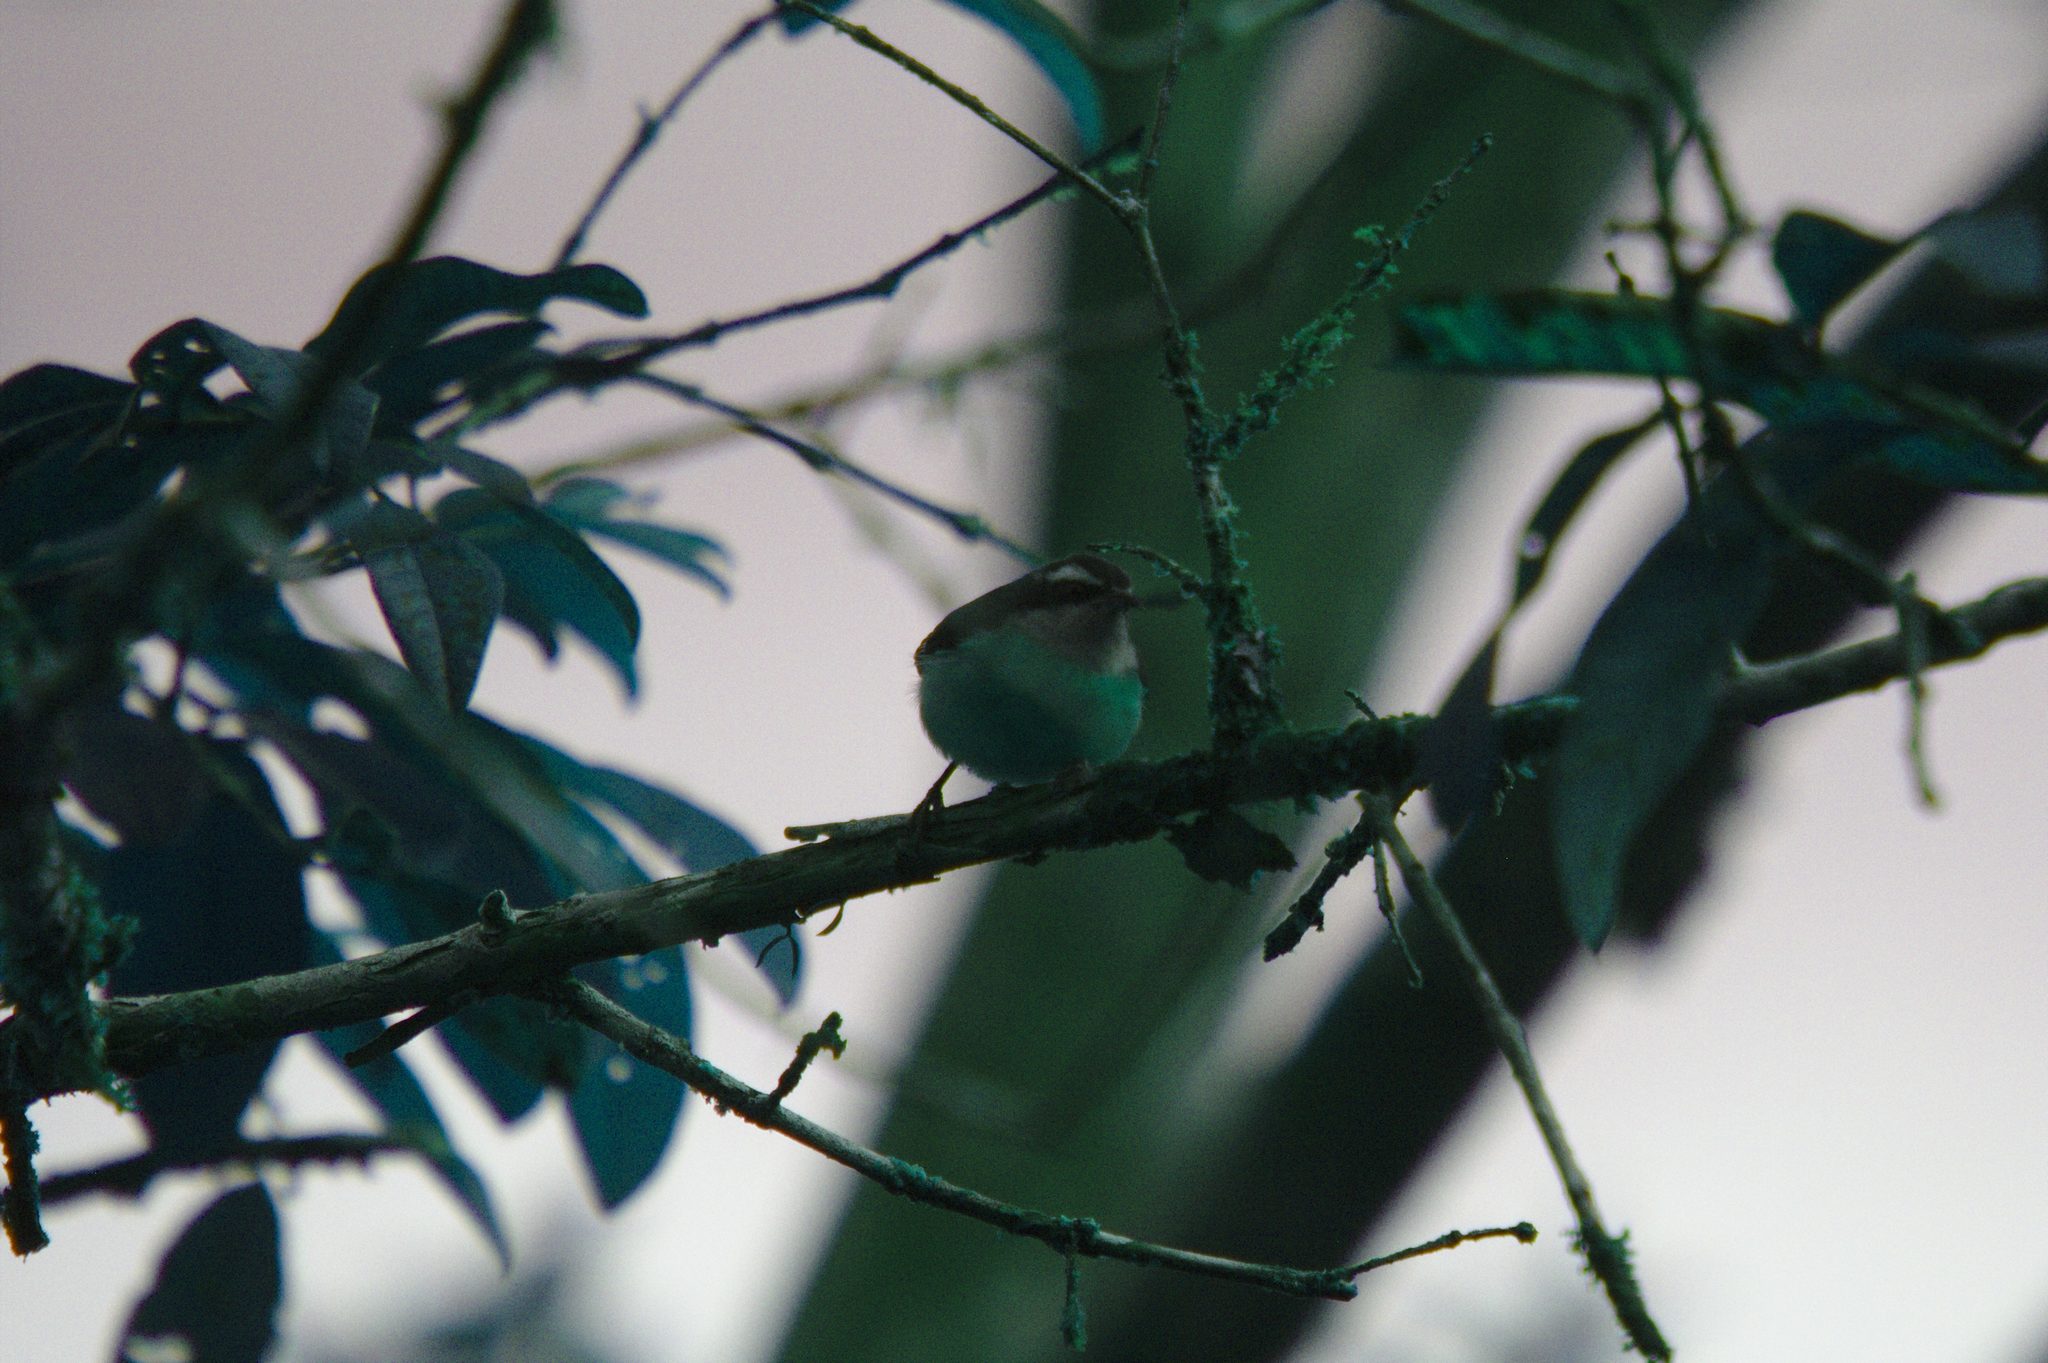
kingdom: Animalia
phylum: Chordata
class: Aves
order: Passeriformes
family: Thraupidae
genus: Coereba
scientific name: Coereba flaveola
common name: Bananaquit
